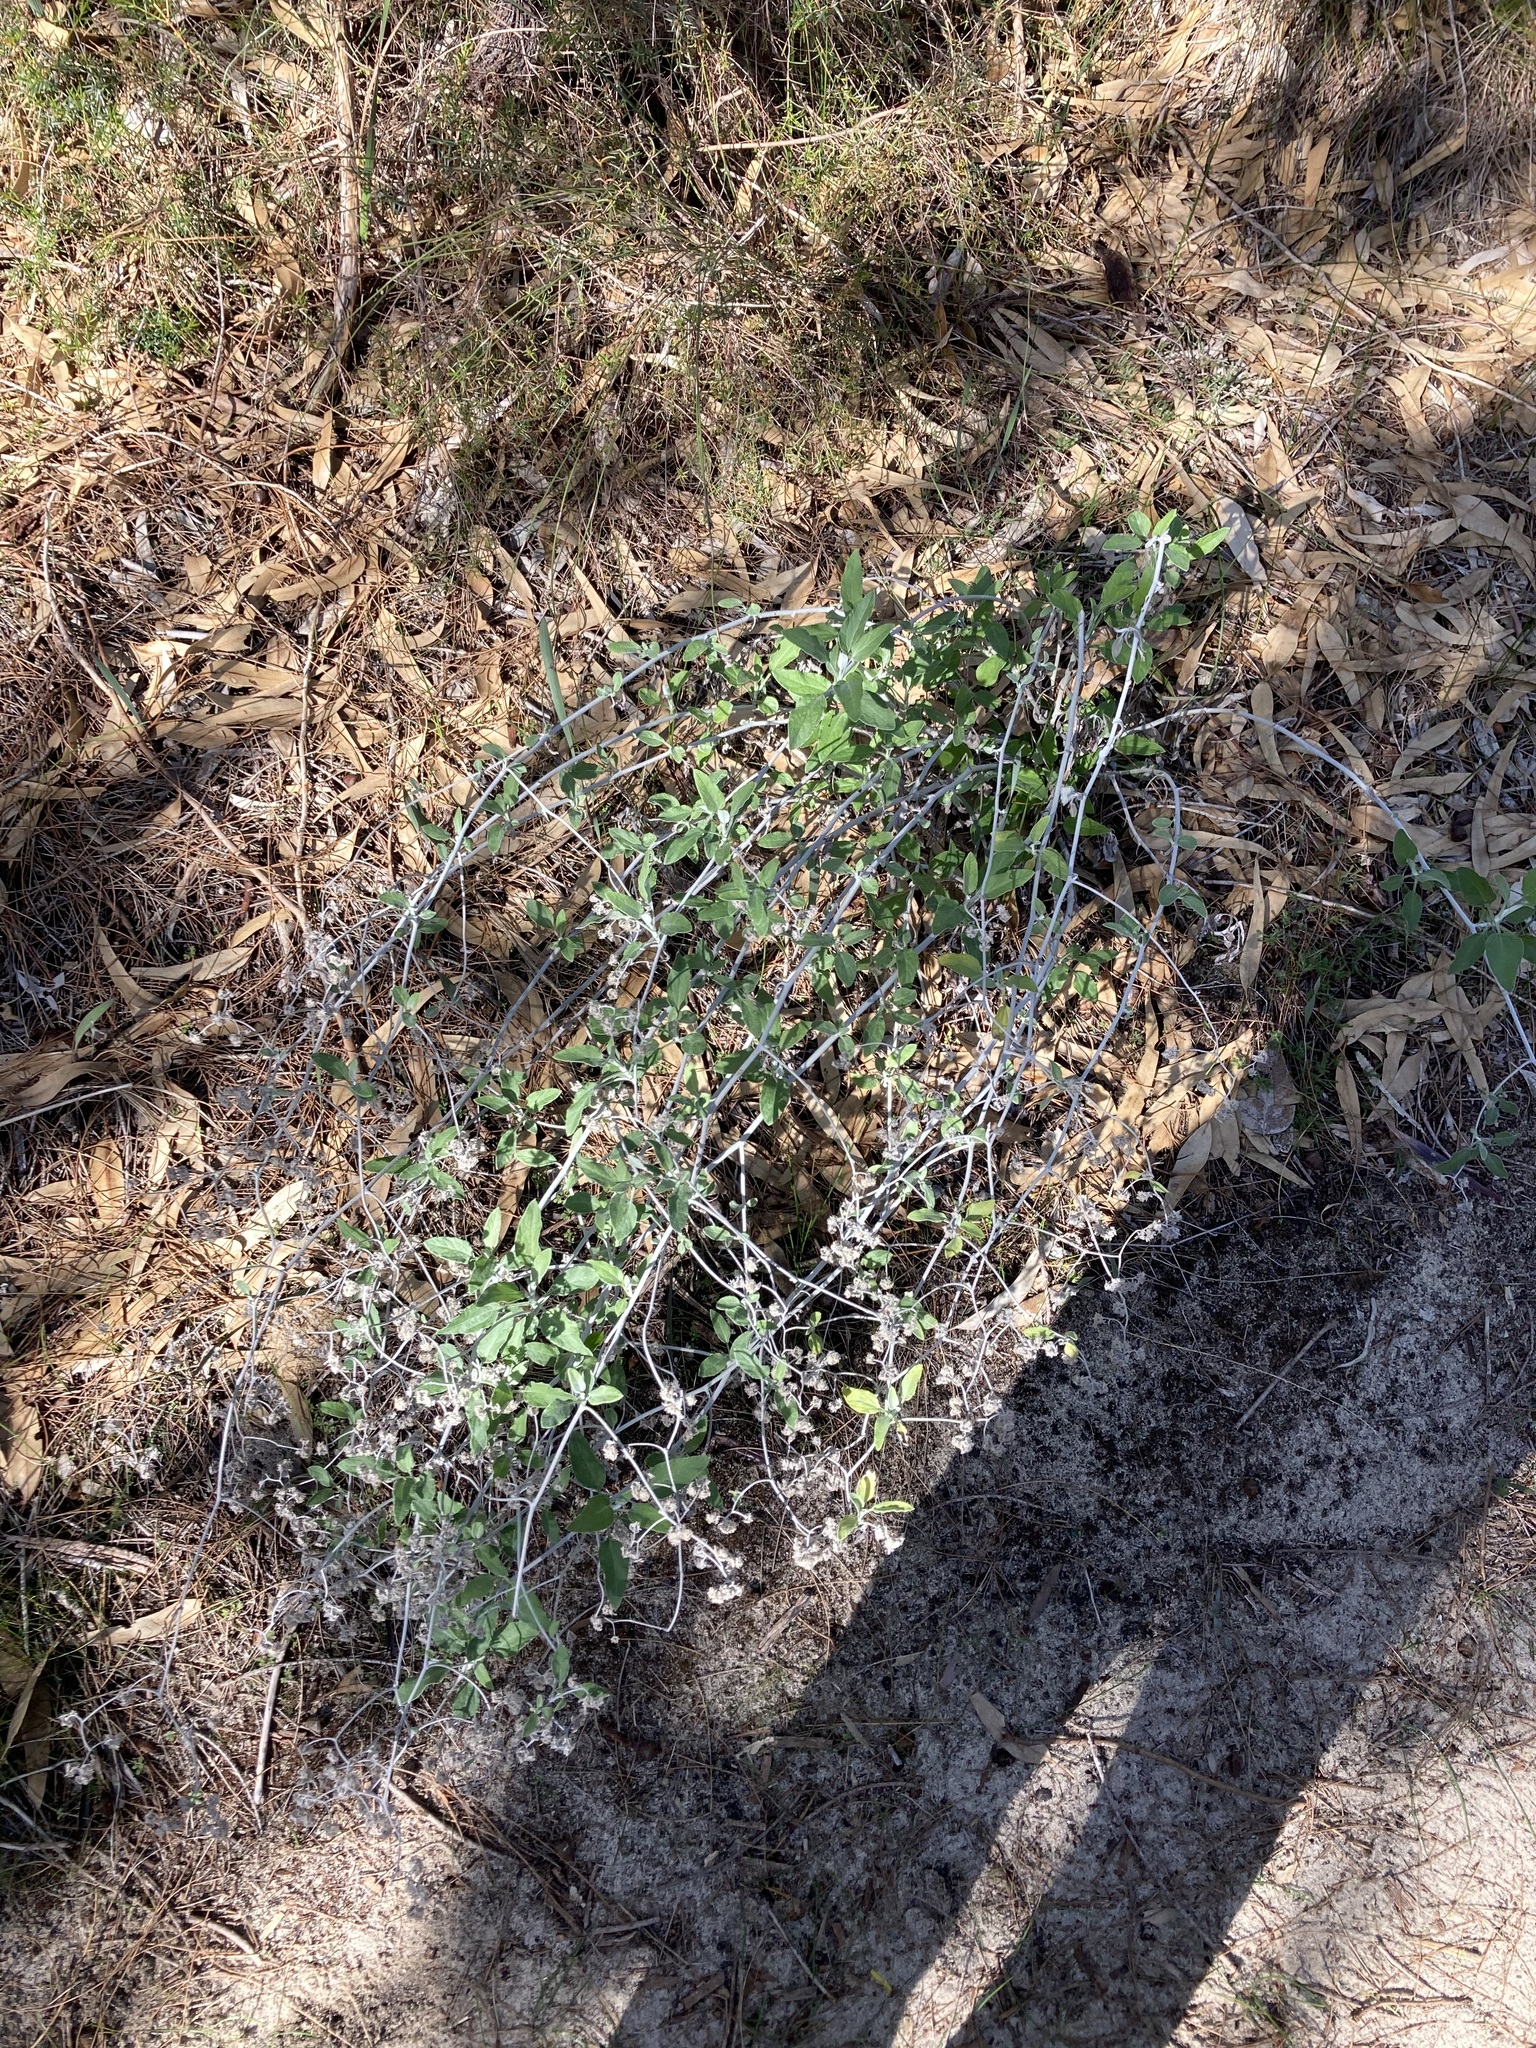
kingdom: Plantae
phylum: Tracheophyta
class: Magnoliopsida
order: Asterales
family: Asteraceae
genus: Pithocarpa
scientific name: Pithocarpa cordata
